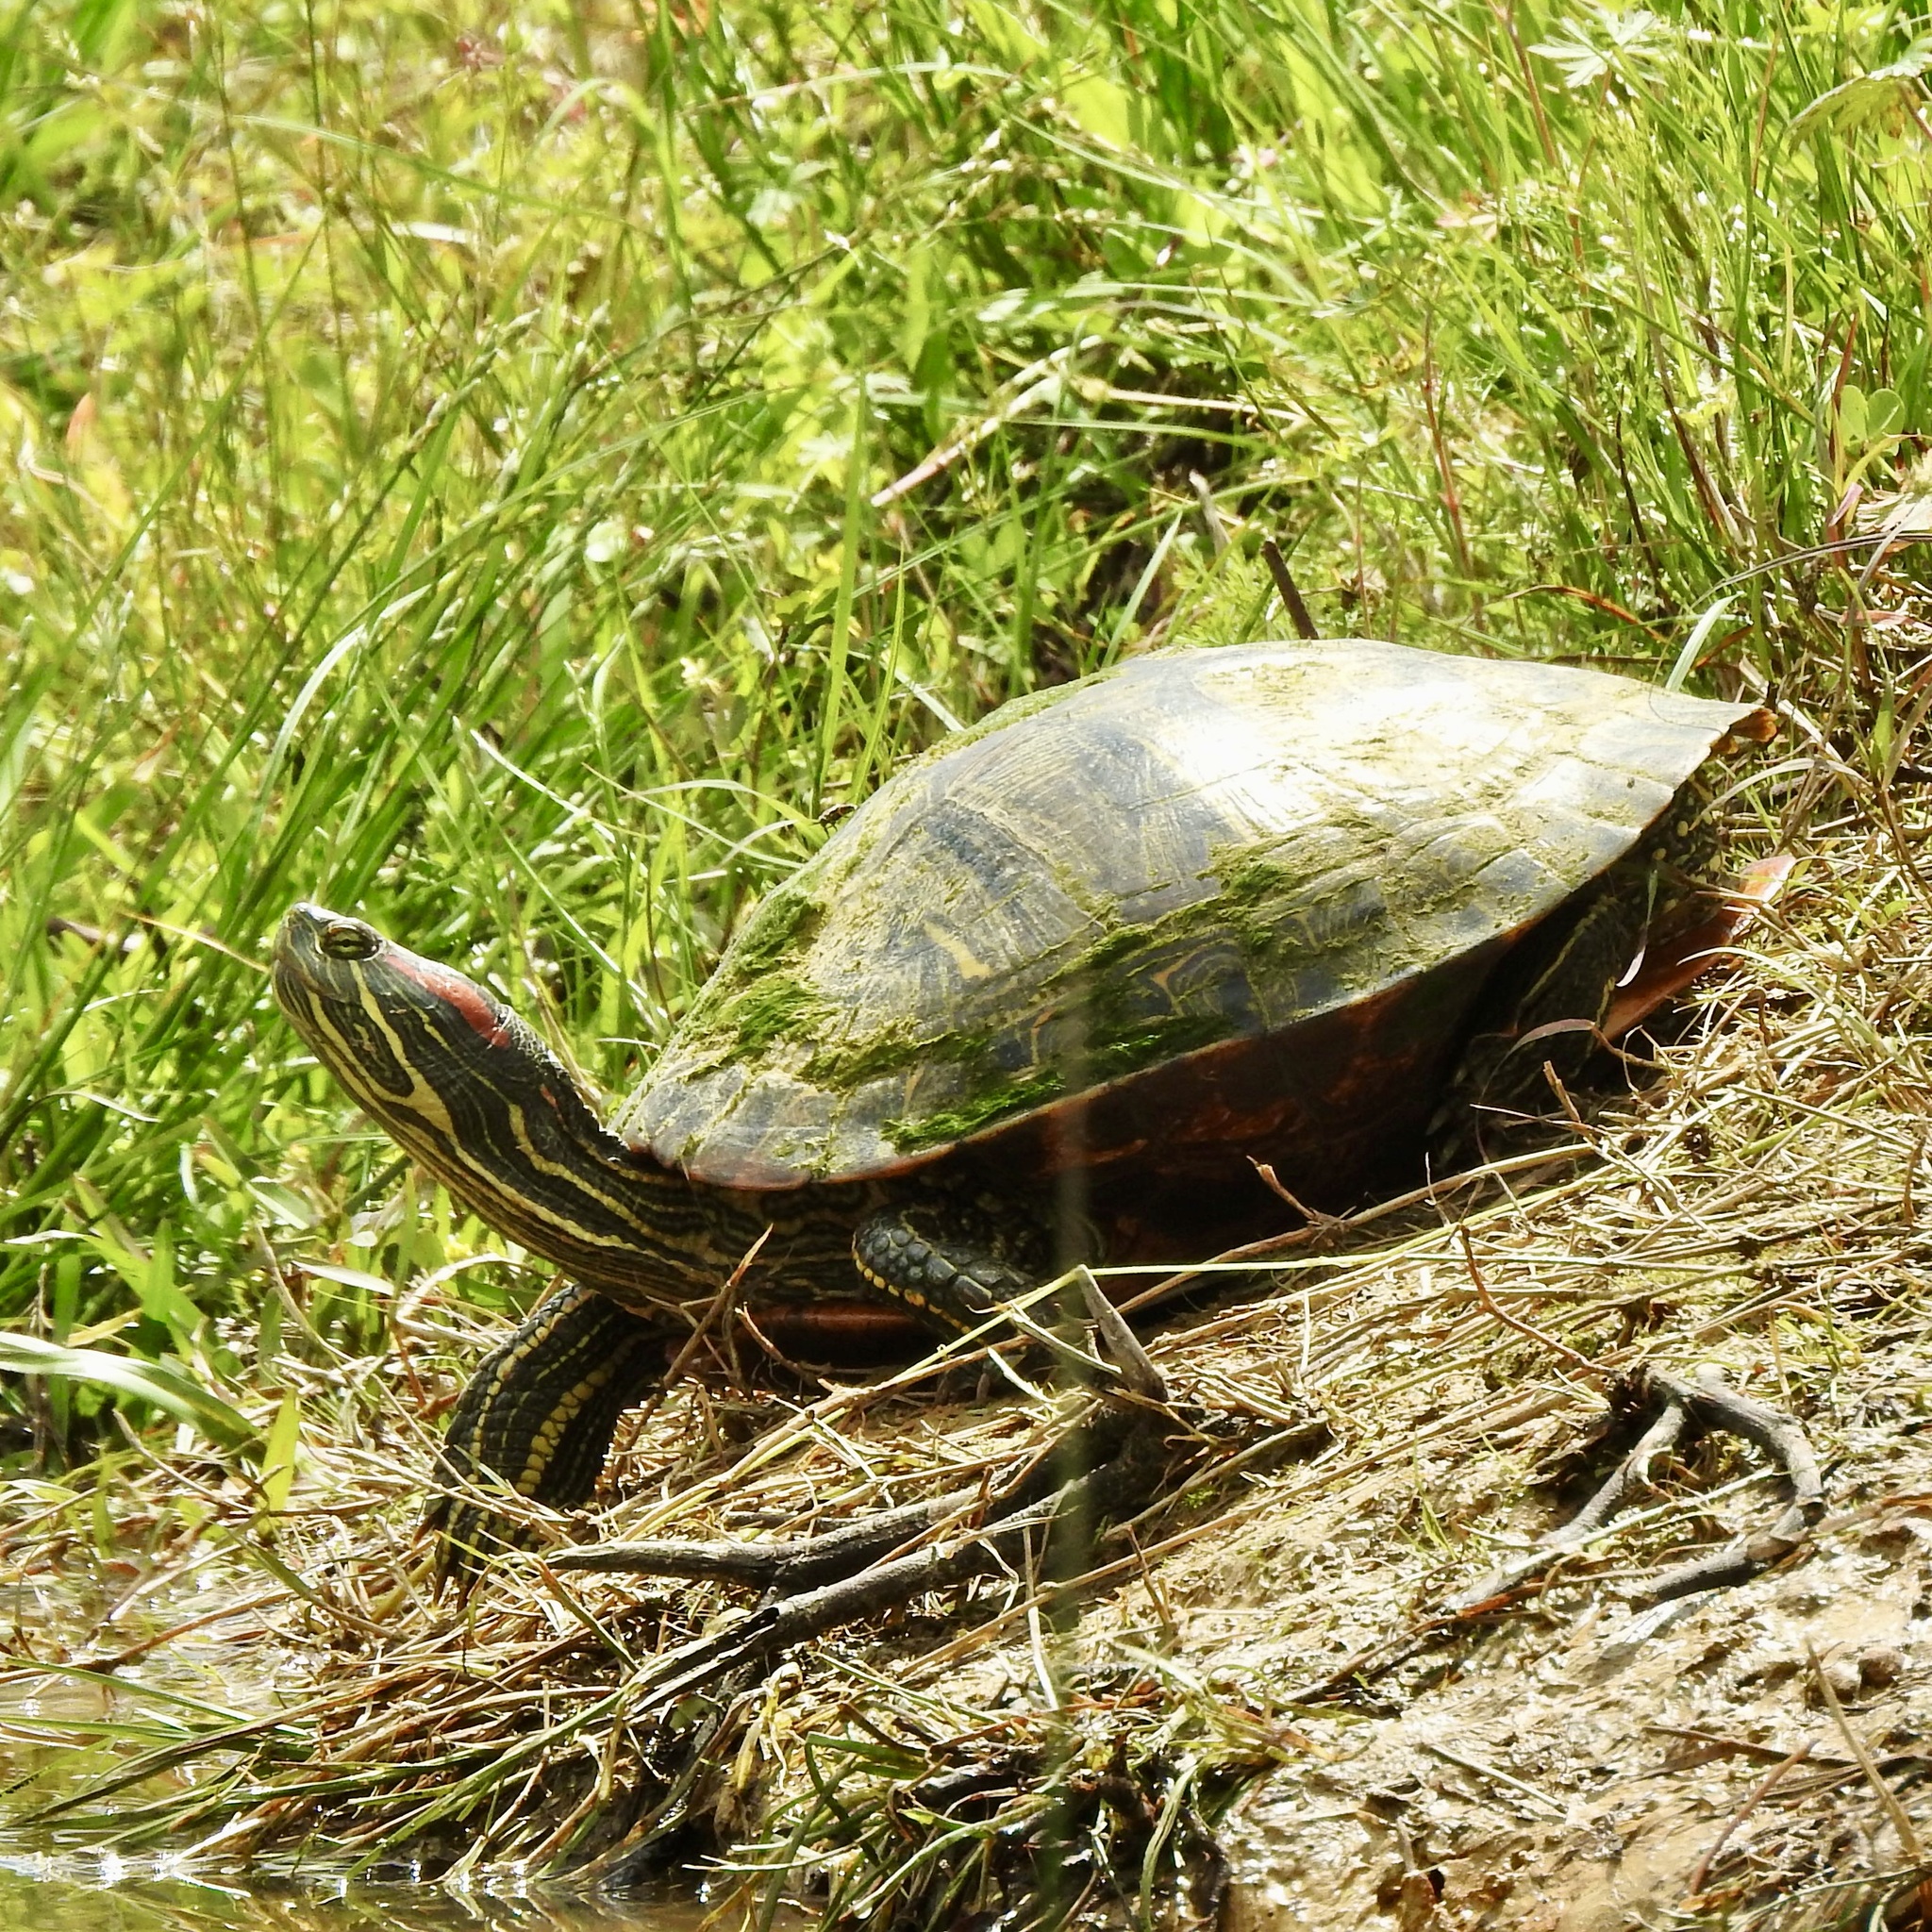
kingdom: Animalia
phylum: Chordata
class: Testudines
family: Emydidae
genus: Trachemys
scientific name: Trachemys scripta
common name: Slider
